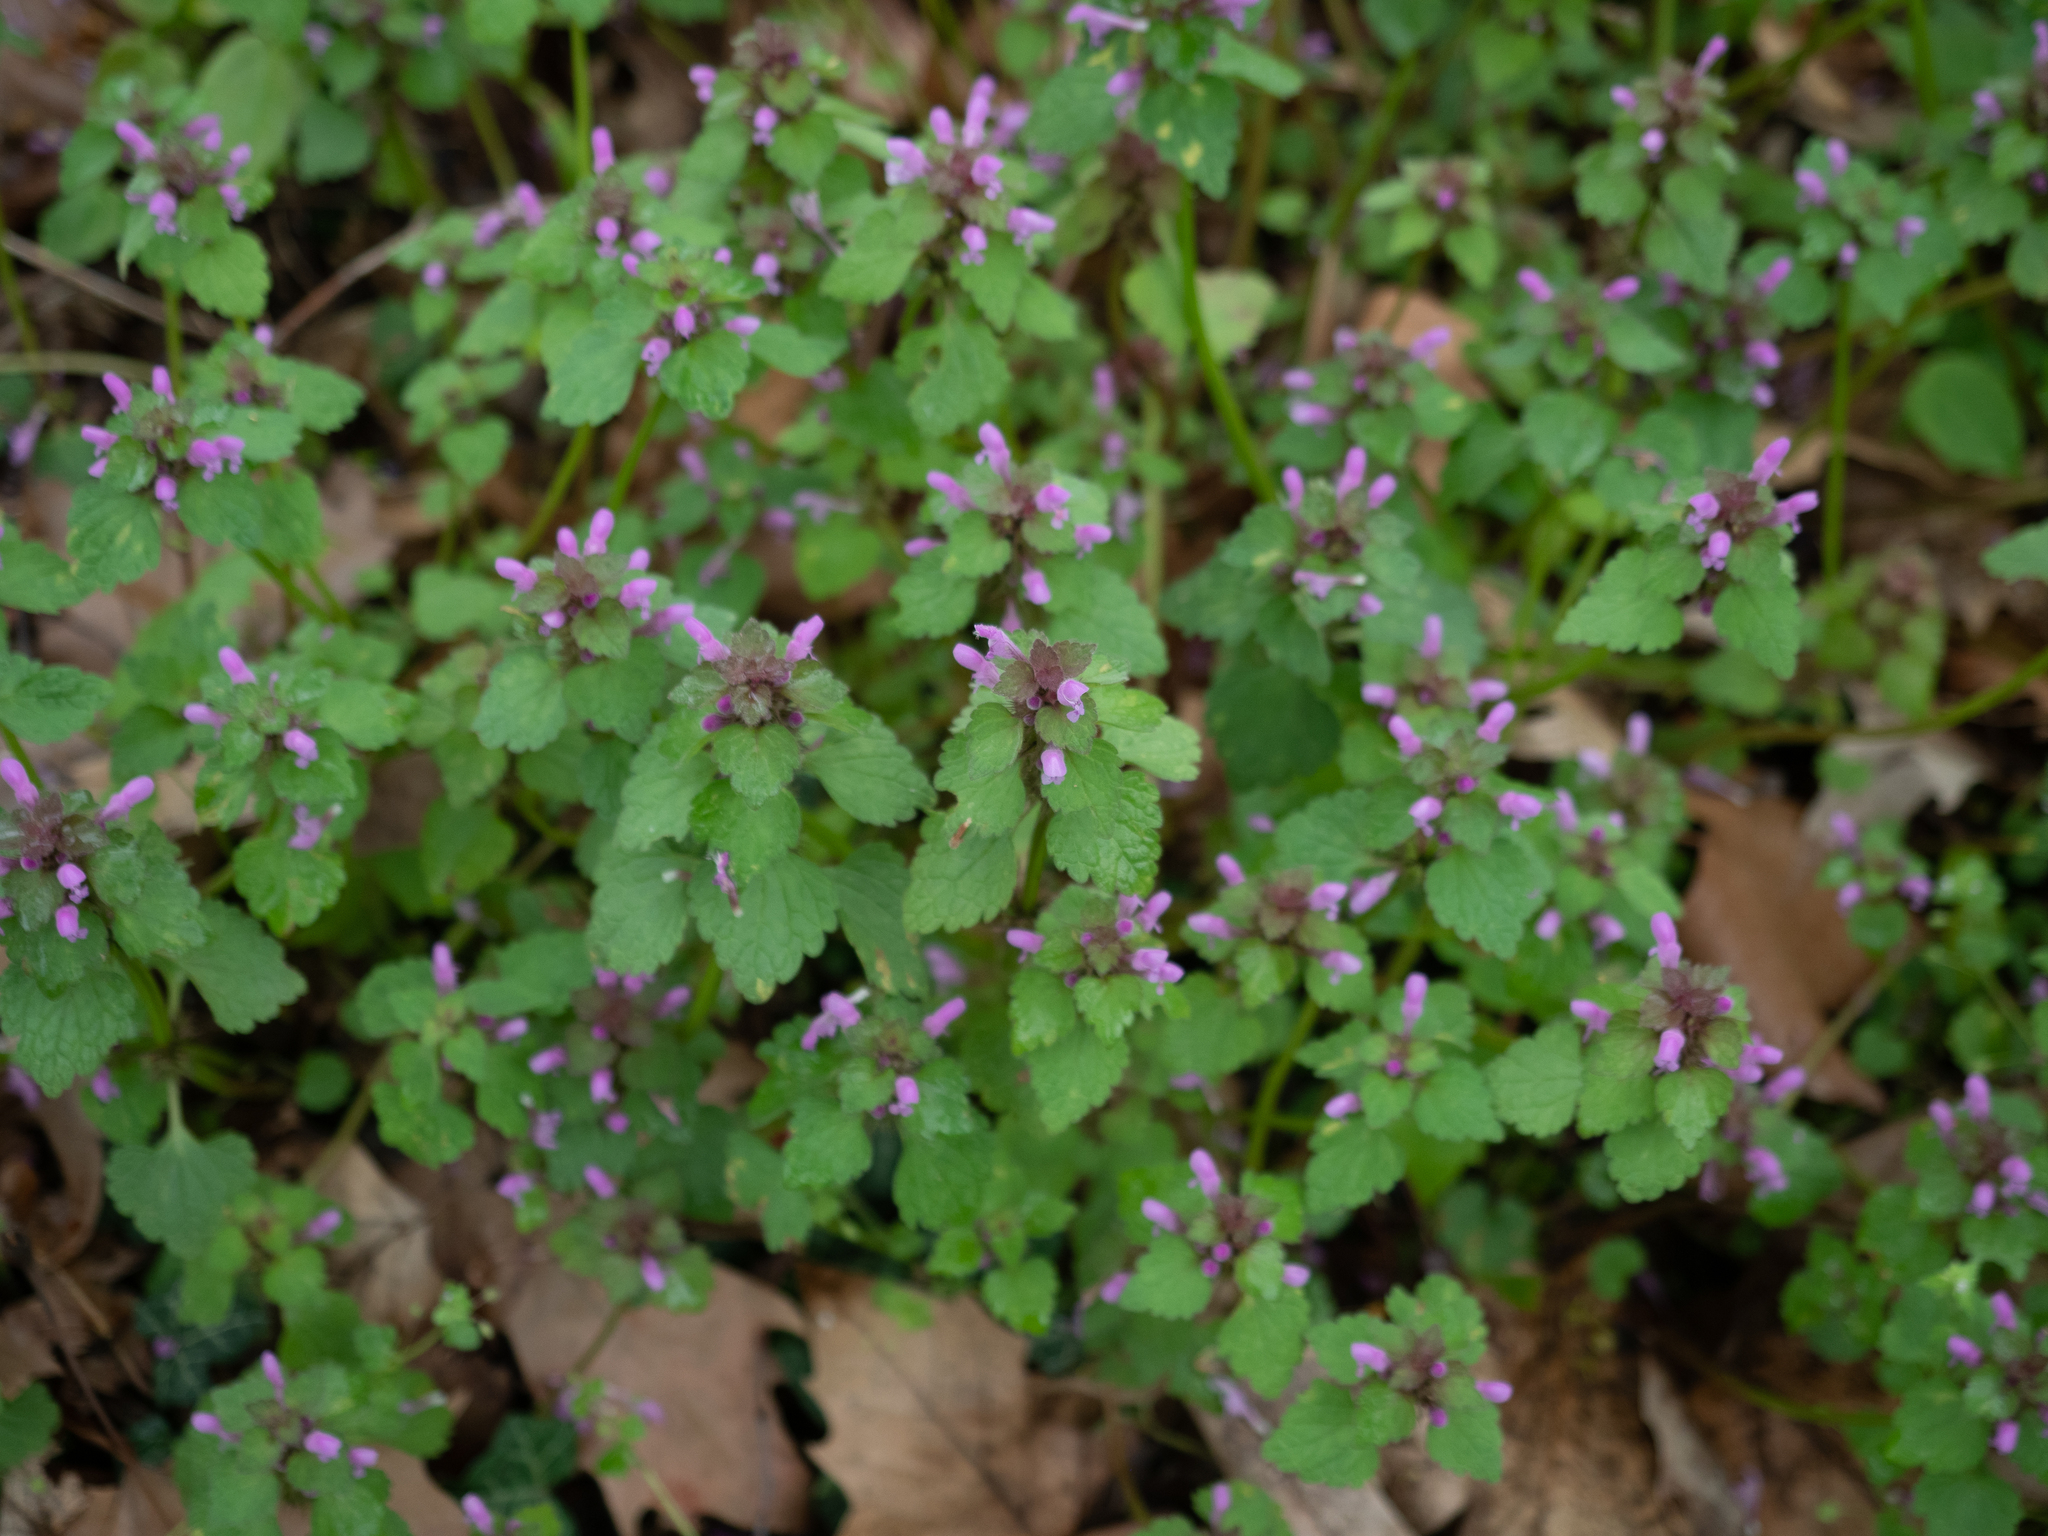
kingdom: Plantae
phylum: Tracheophyta
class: Magnoliopsida
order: Lamiales
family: Lamiaceae
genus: Lamium
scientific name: Lamium purpureum
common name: Red dead-nettle
